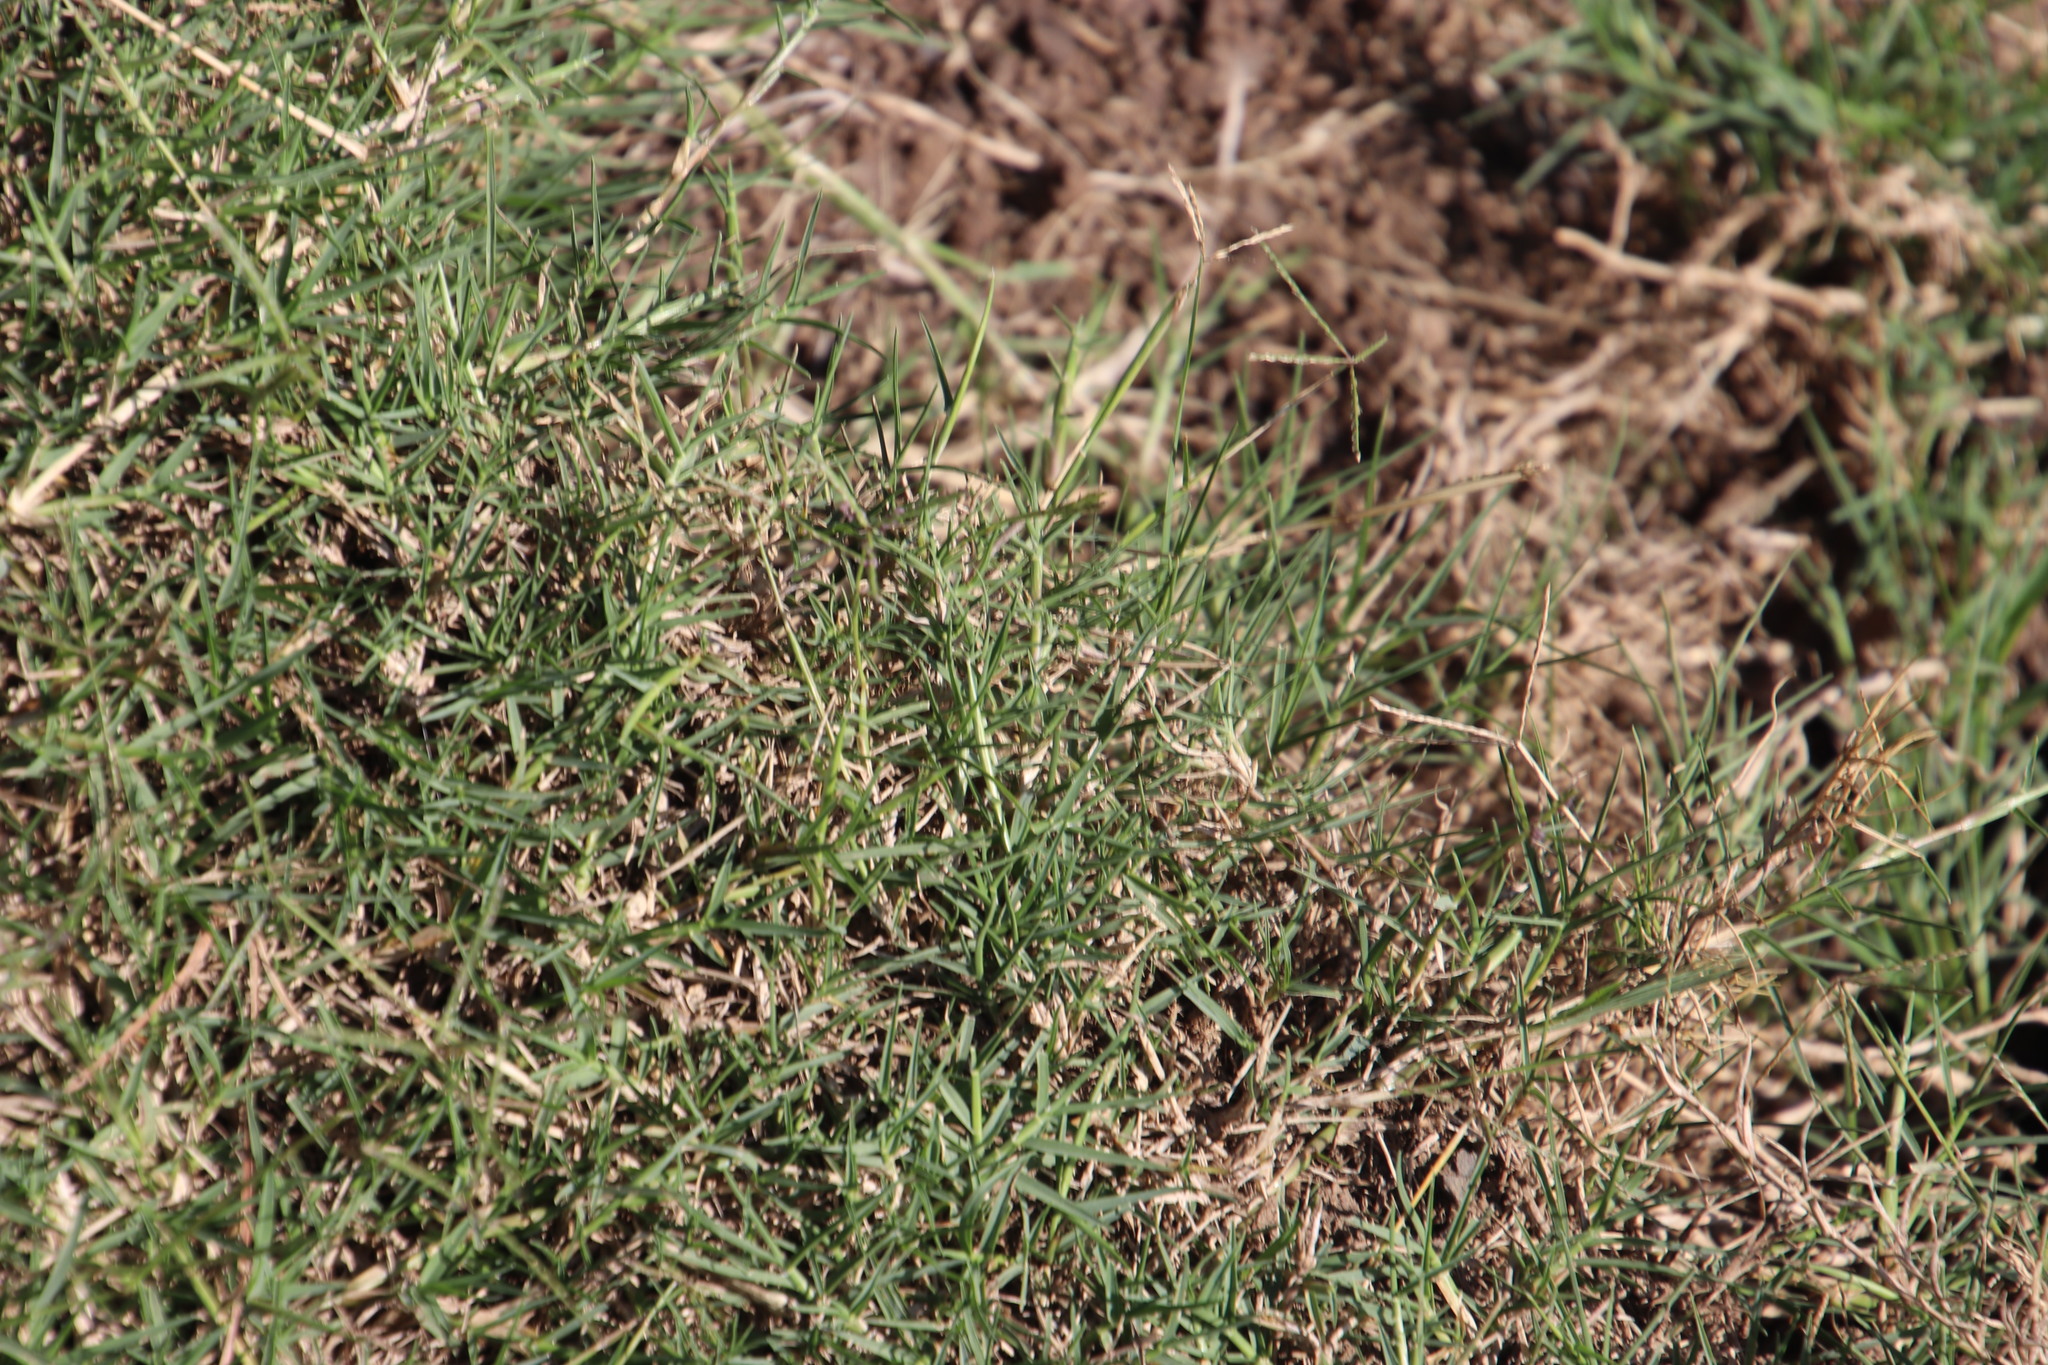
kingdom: Plantae
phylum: Tracheophyta
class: Liliopsida
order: Poales
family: Poaceae
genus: Cynodon
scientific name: Cynodon dactylon
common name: Bermuda grass
